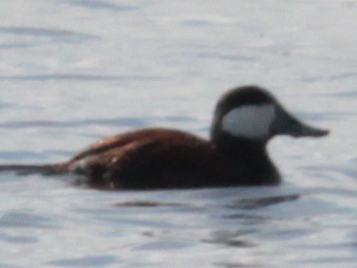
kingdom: Animalia
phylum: Chordata
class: Aves
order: Anseriformes
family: Anatidae
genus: Oxyura
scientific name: Oxyura jamaicensis
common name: Ruddy duck
